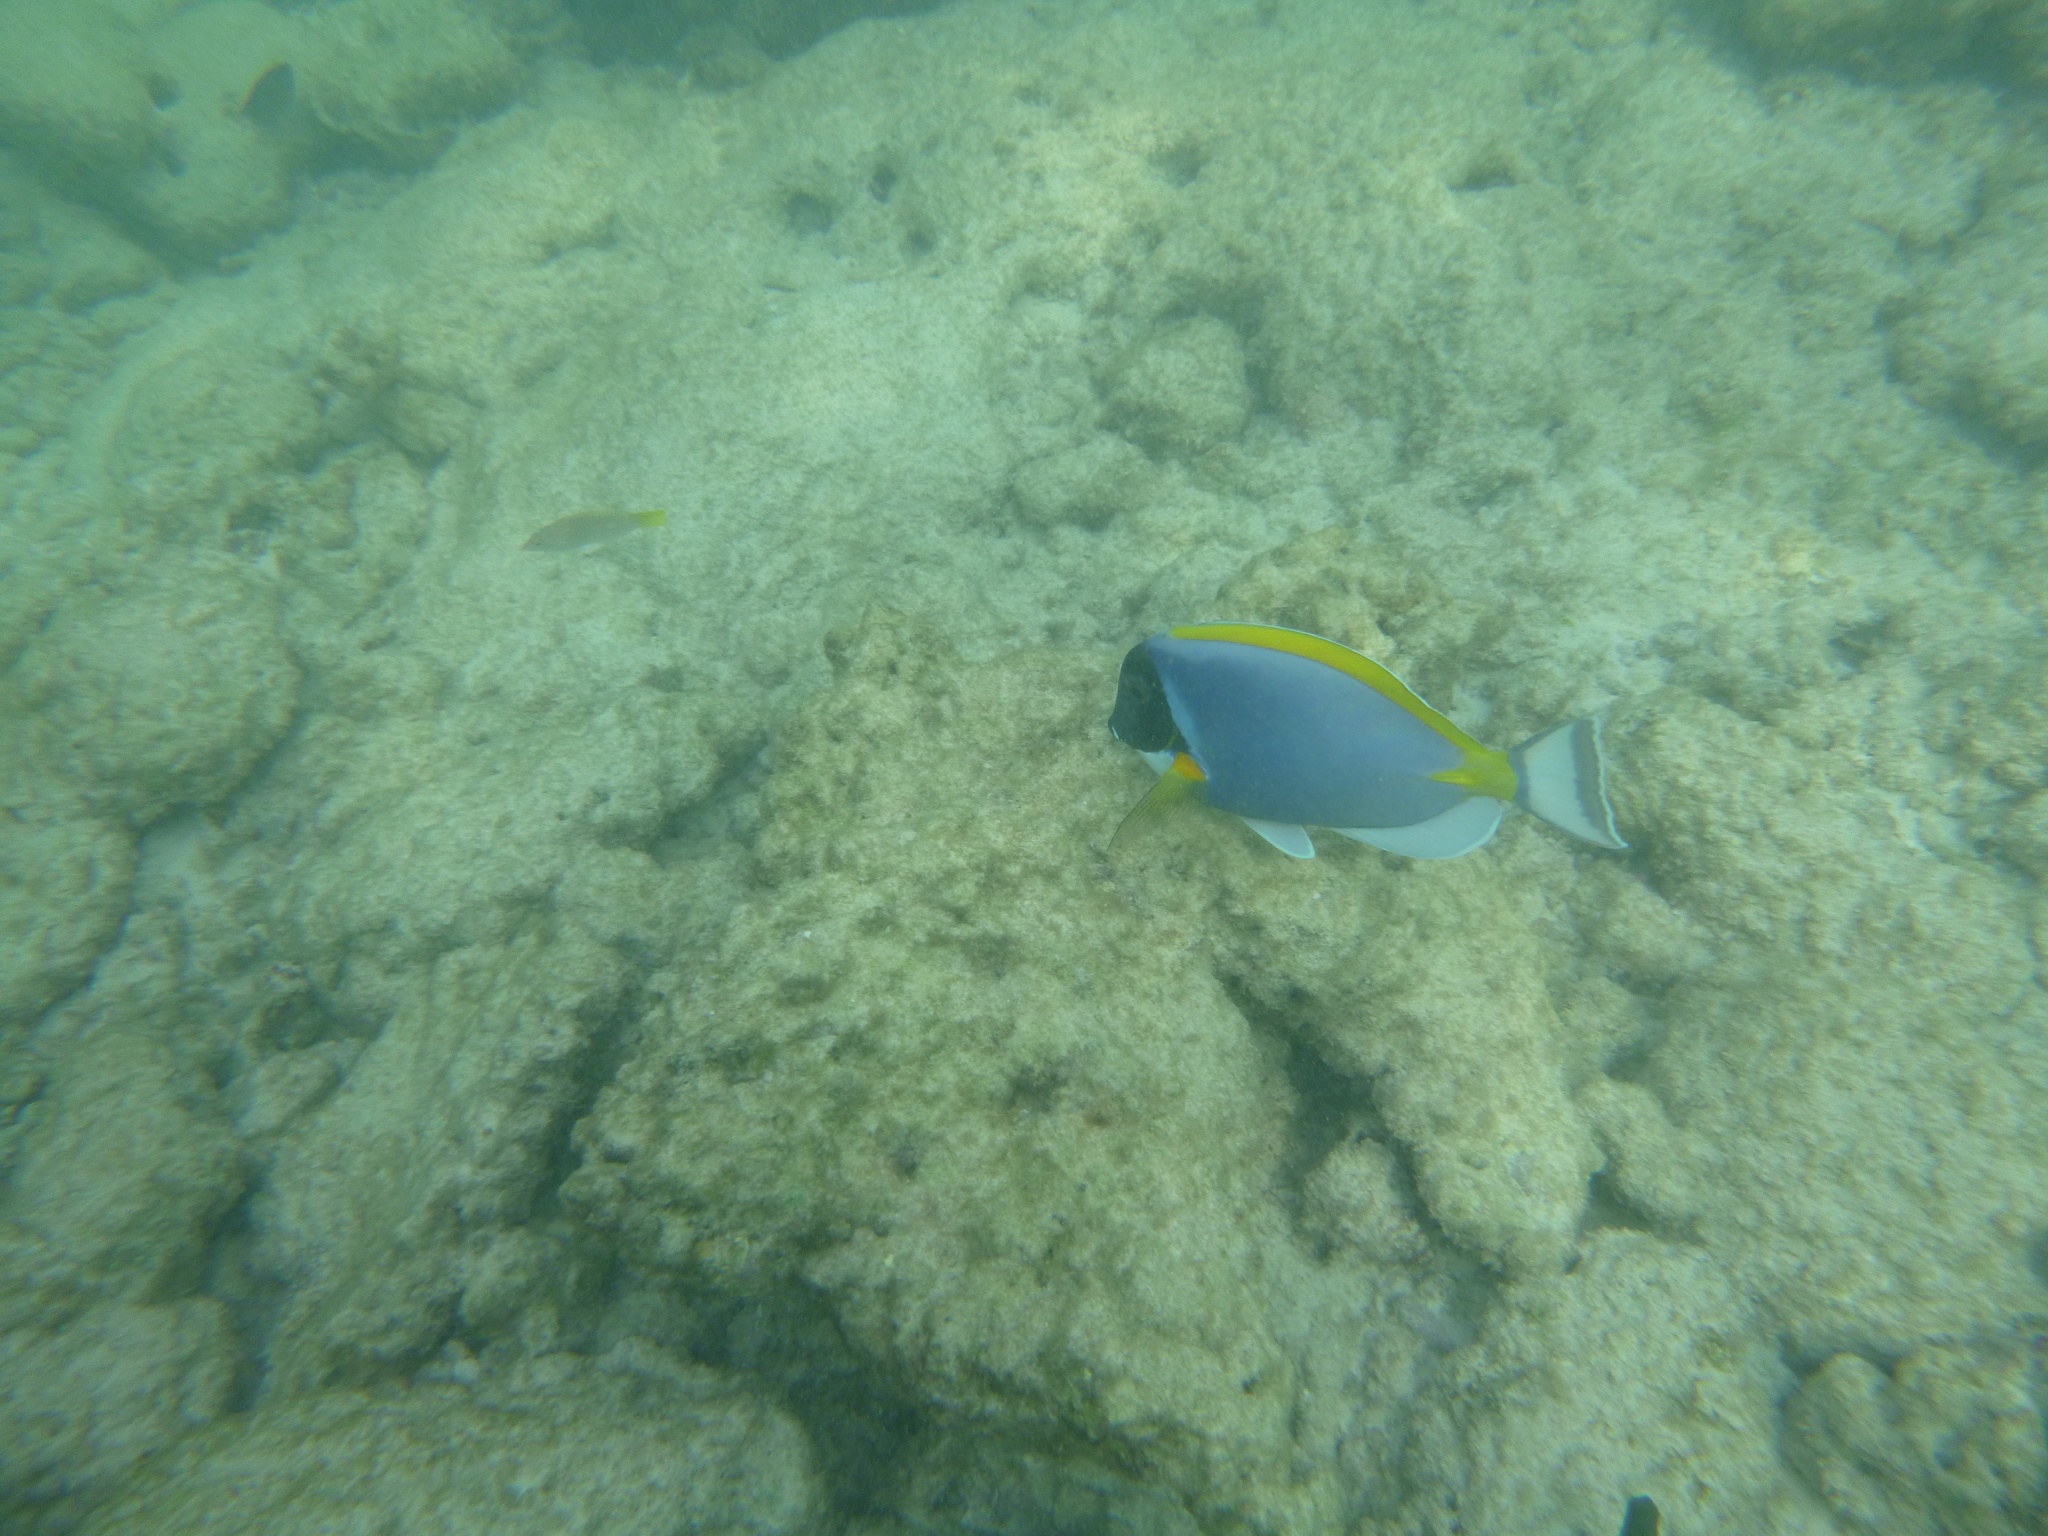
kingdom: Animalia
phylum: Chordata
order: Perciformes
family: Acanthuridae
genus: Acanthurus
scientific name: Acanthurus leucosternon
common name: Blue surgeonfish
